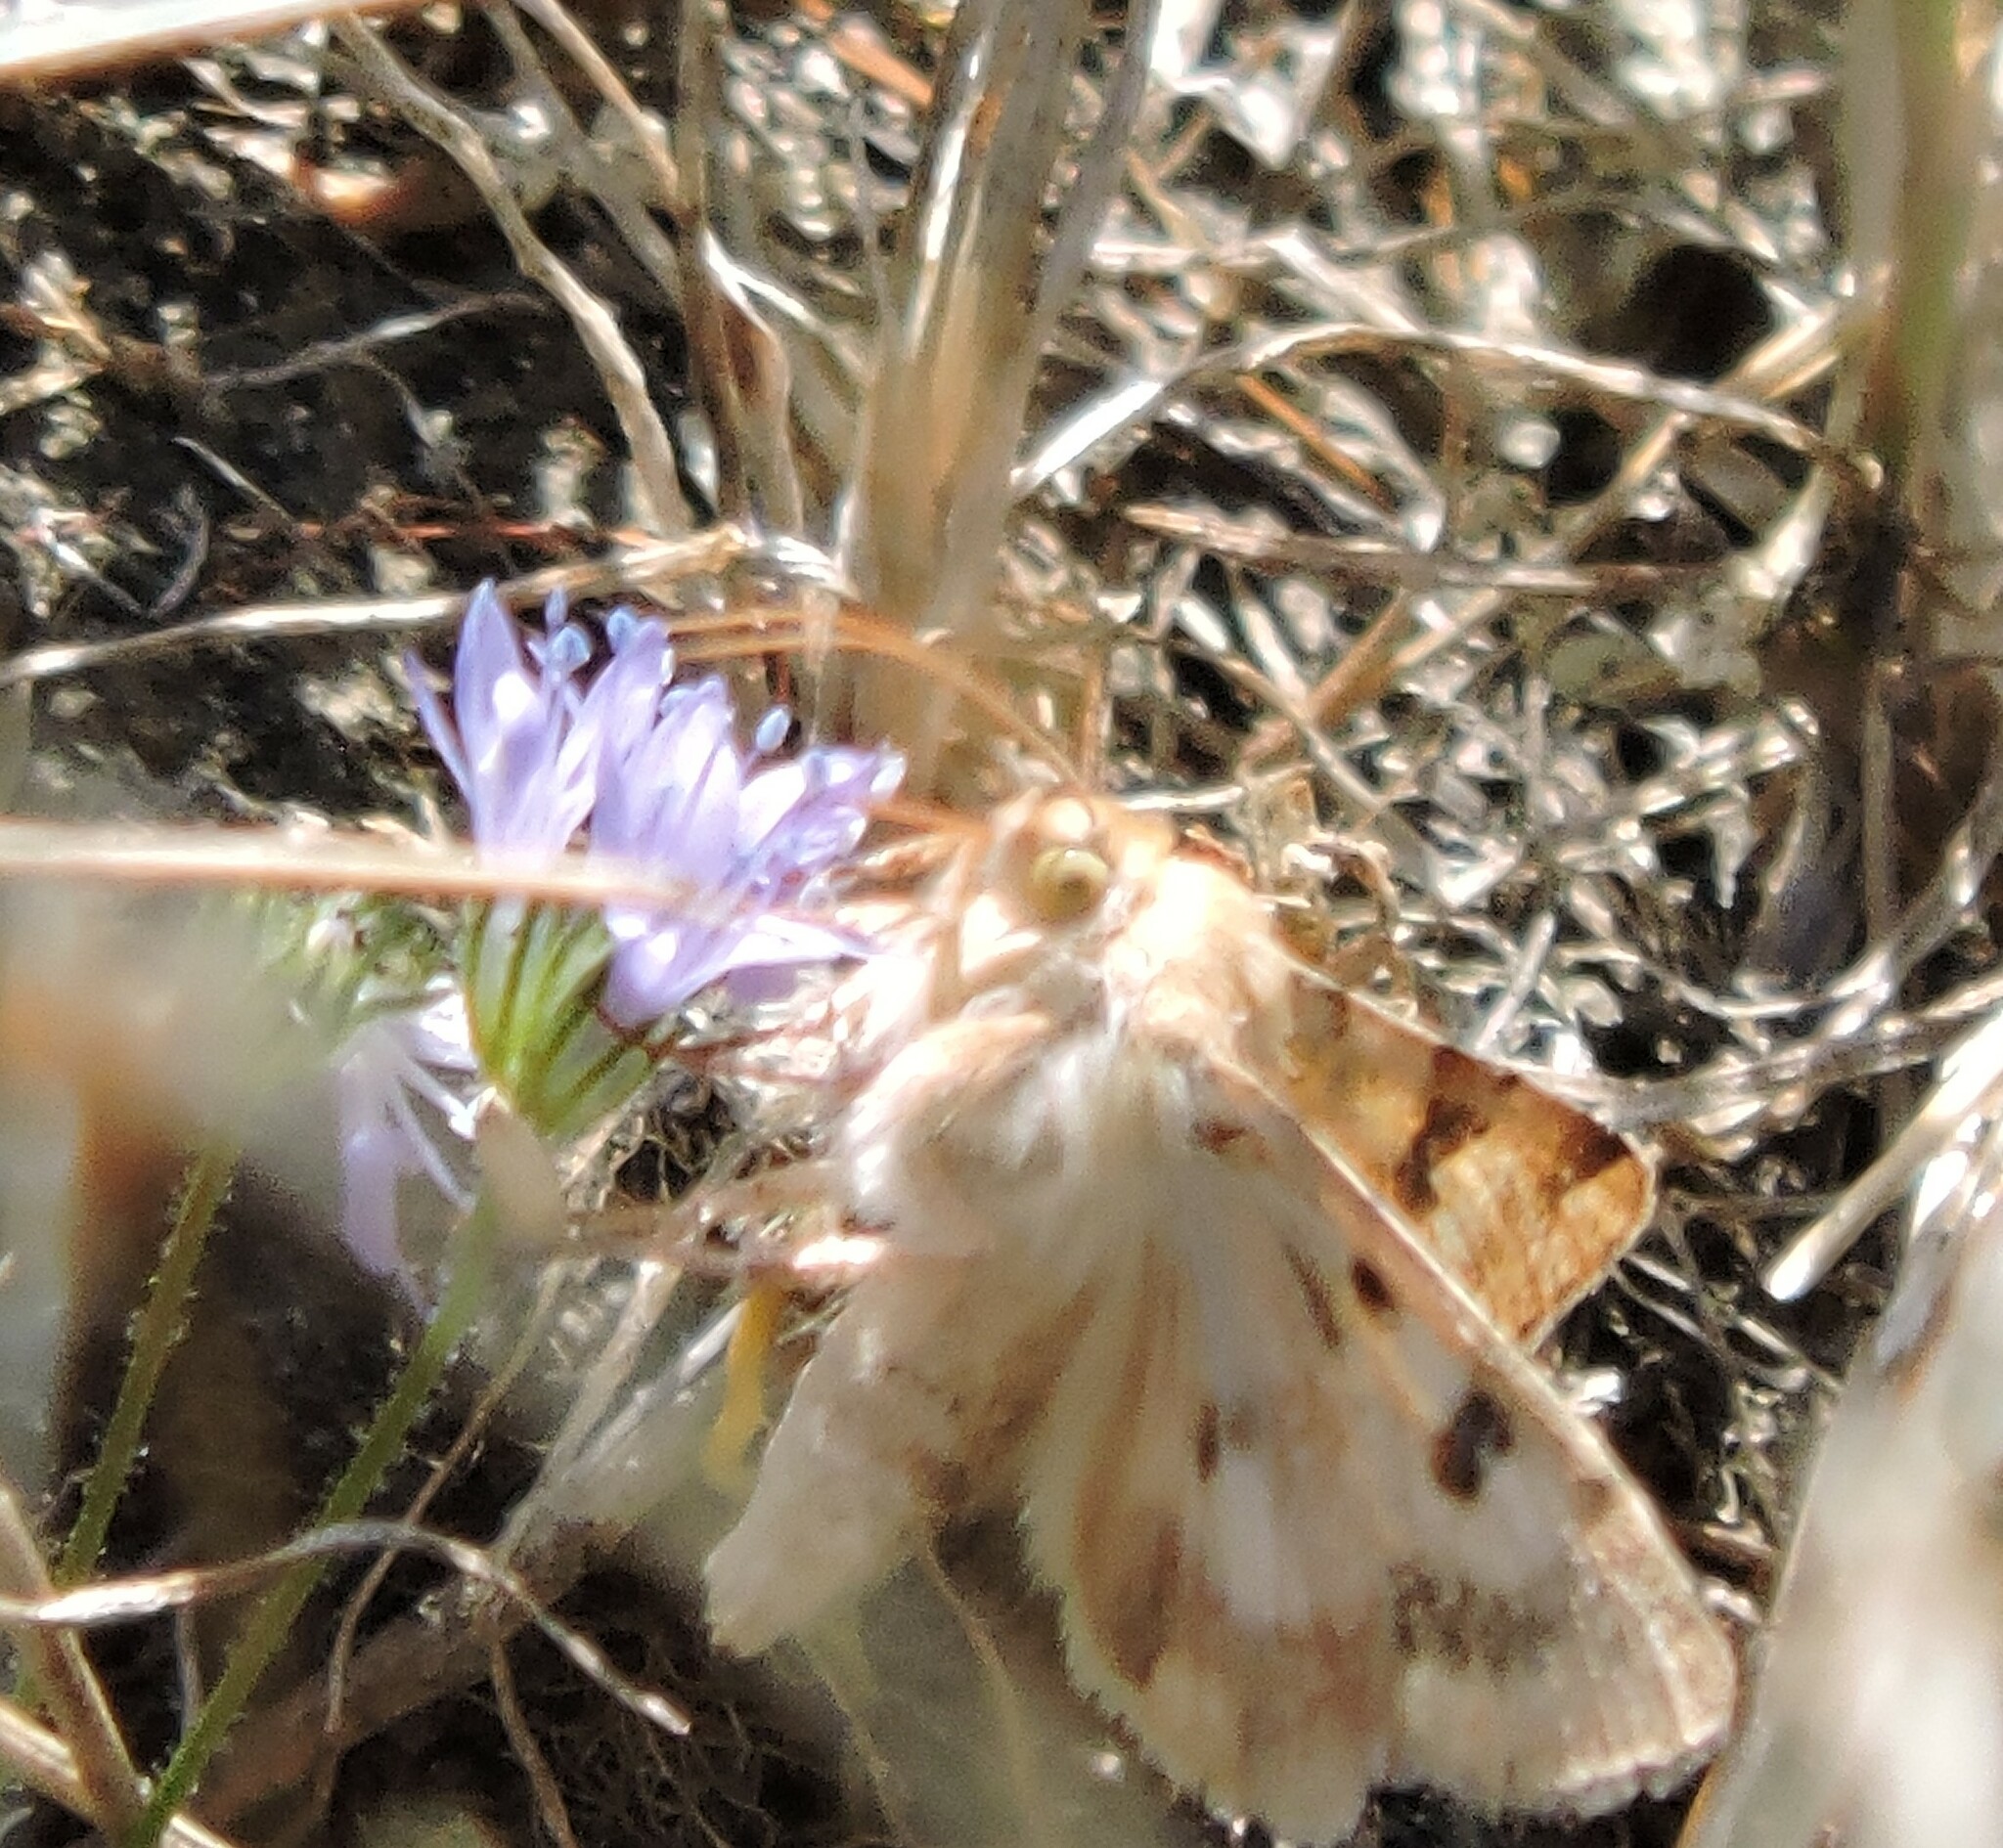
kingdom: Animalia
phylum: Arthropoda
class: Insecta
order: Lepidoptera
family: Noctuidae
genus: Heliothis
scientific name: Heliothis phloxiphaga
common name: Darker spotted straw moth
